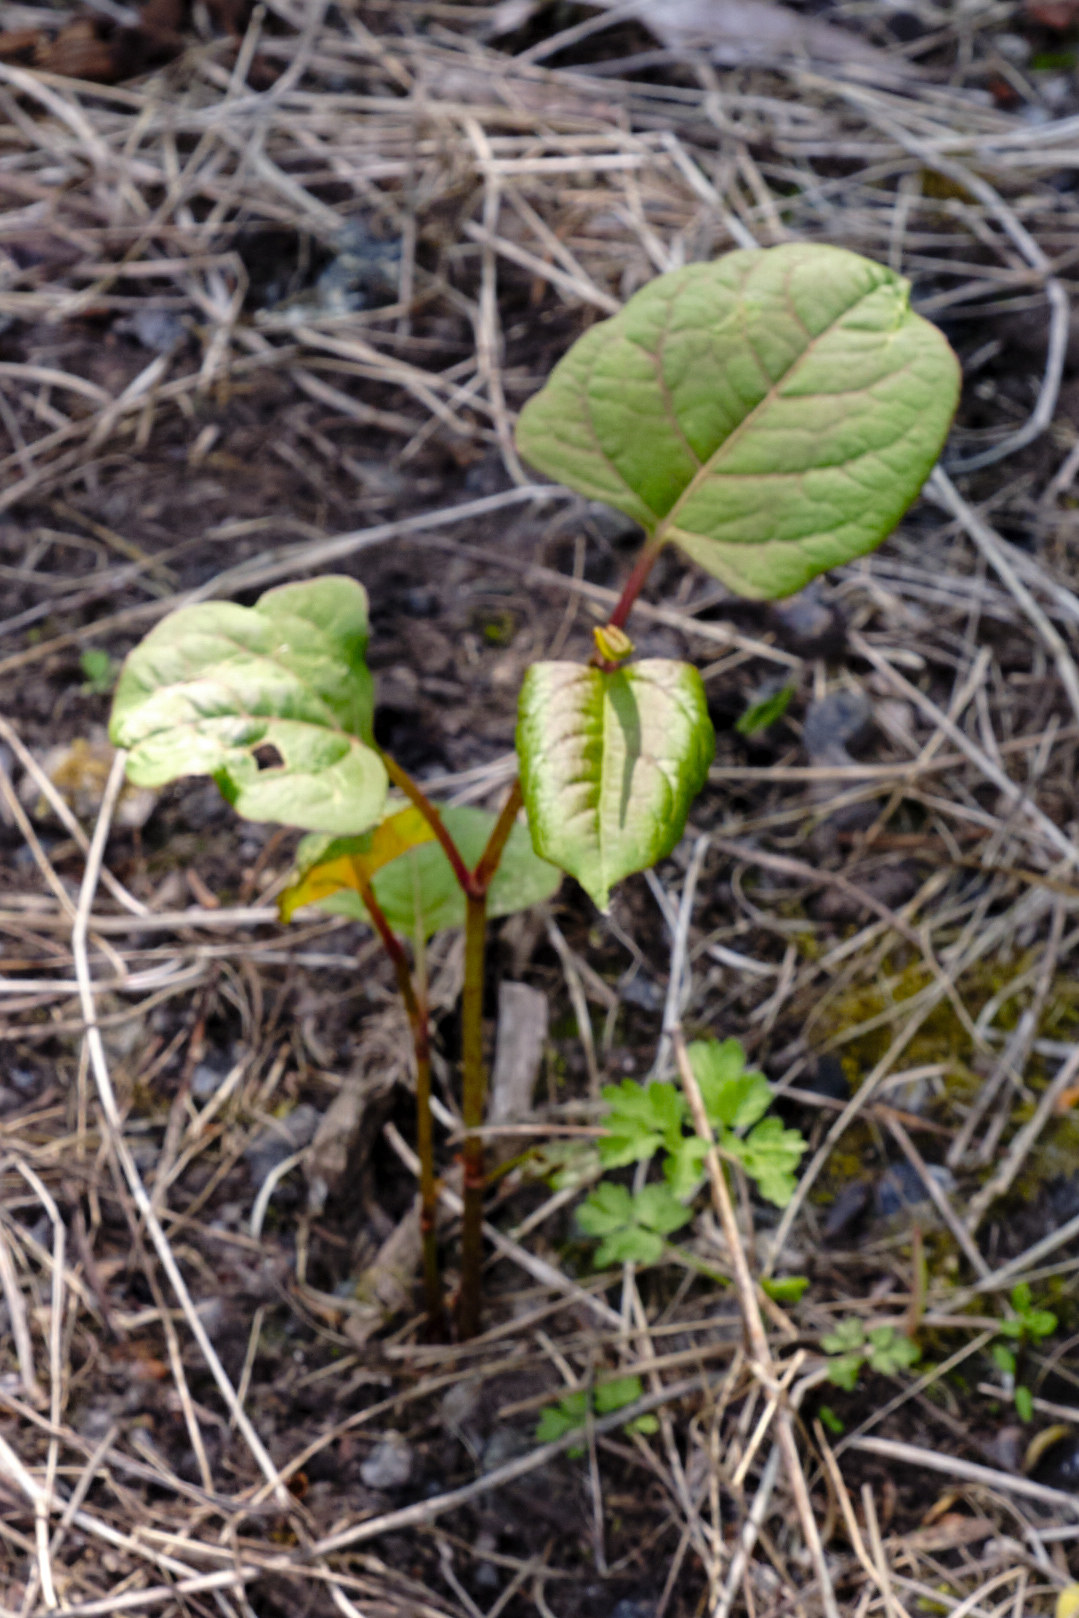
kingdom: Plantae
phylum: Tracheophyta
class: Magnoliopsida
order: Caryophyllales
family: Polygonaceae
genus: Reynoutria
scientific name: Reynoutria japonica
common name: Japanese knotweed
